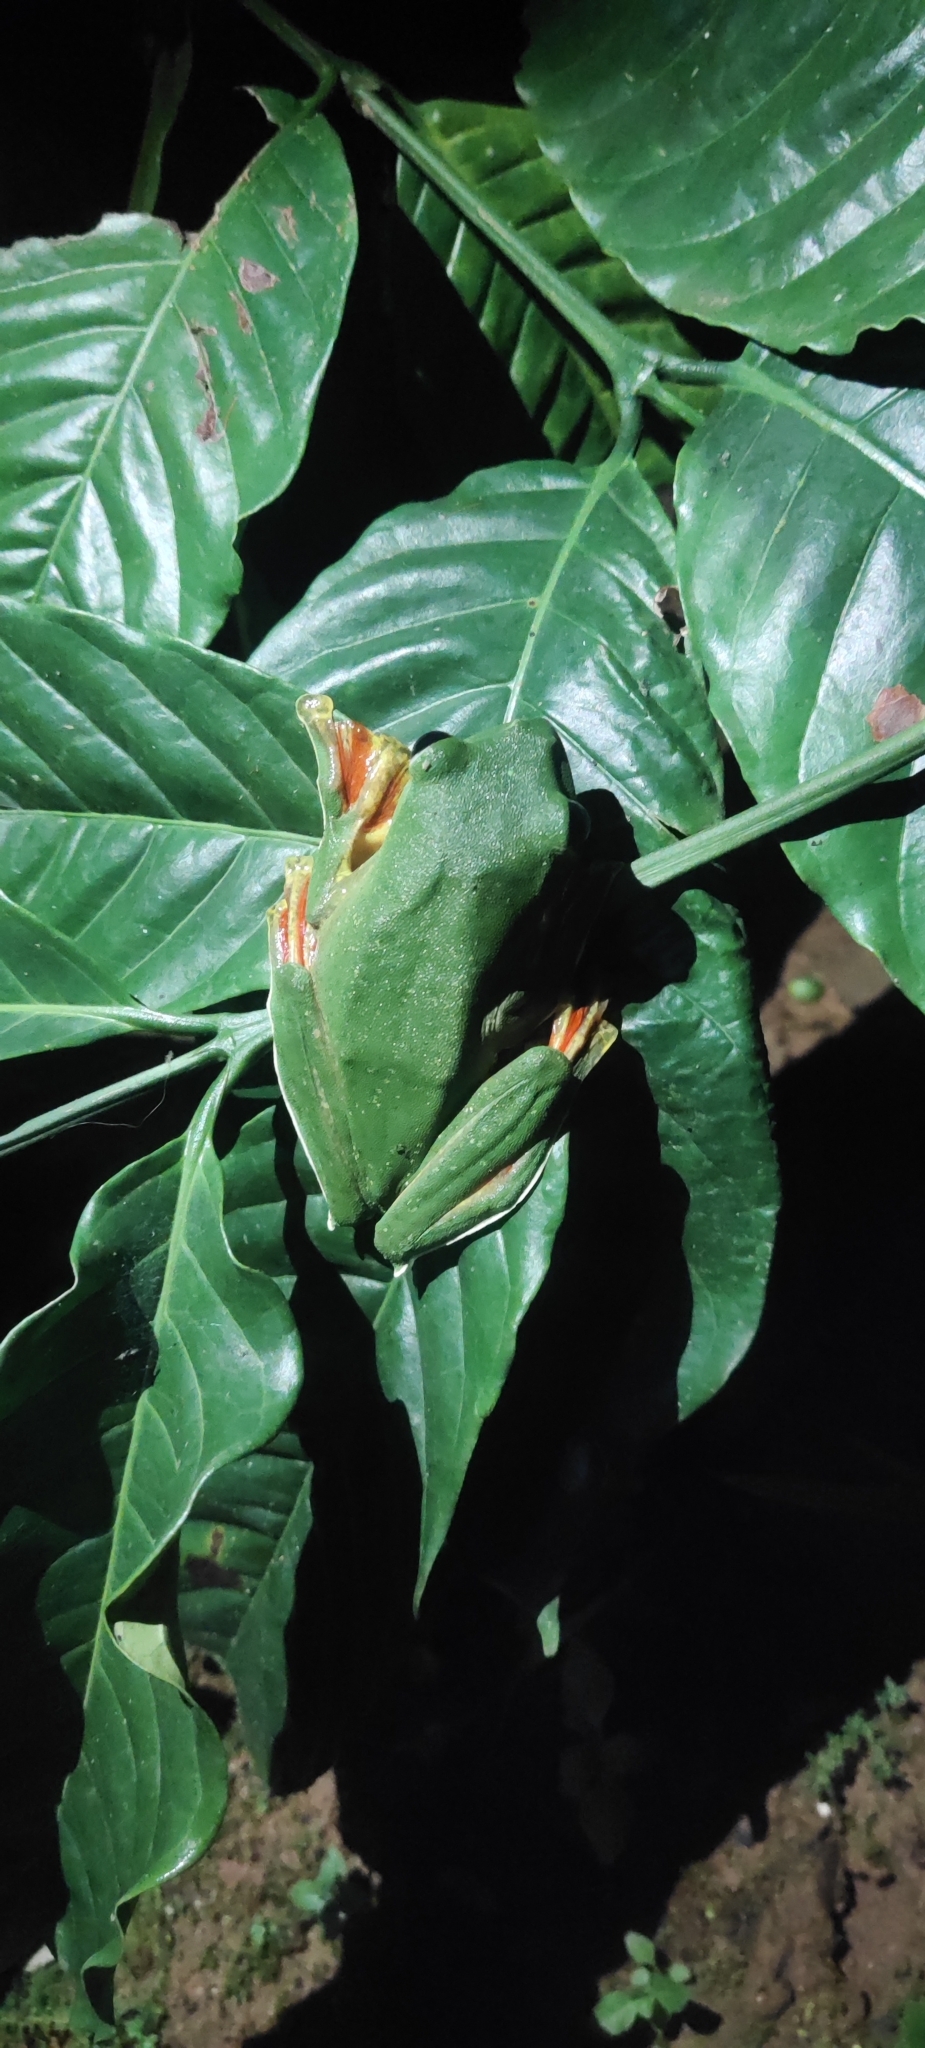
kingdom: Animalia
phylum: Chordata
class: Amphibia
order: Anura
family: Rhacophoridae
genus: Rhacophorus
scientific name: Rhacophorus malabaricus
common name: Malabar gliding frog
